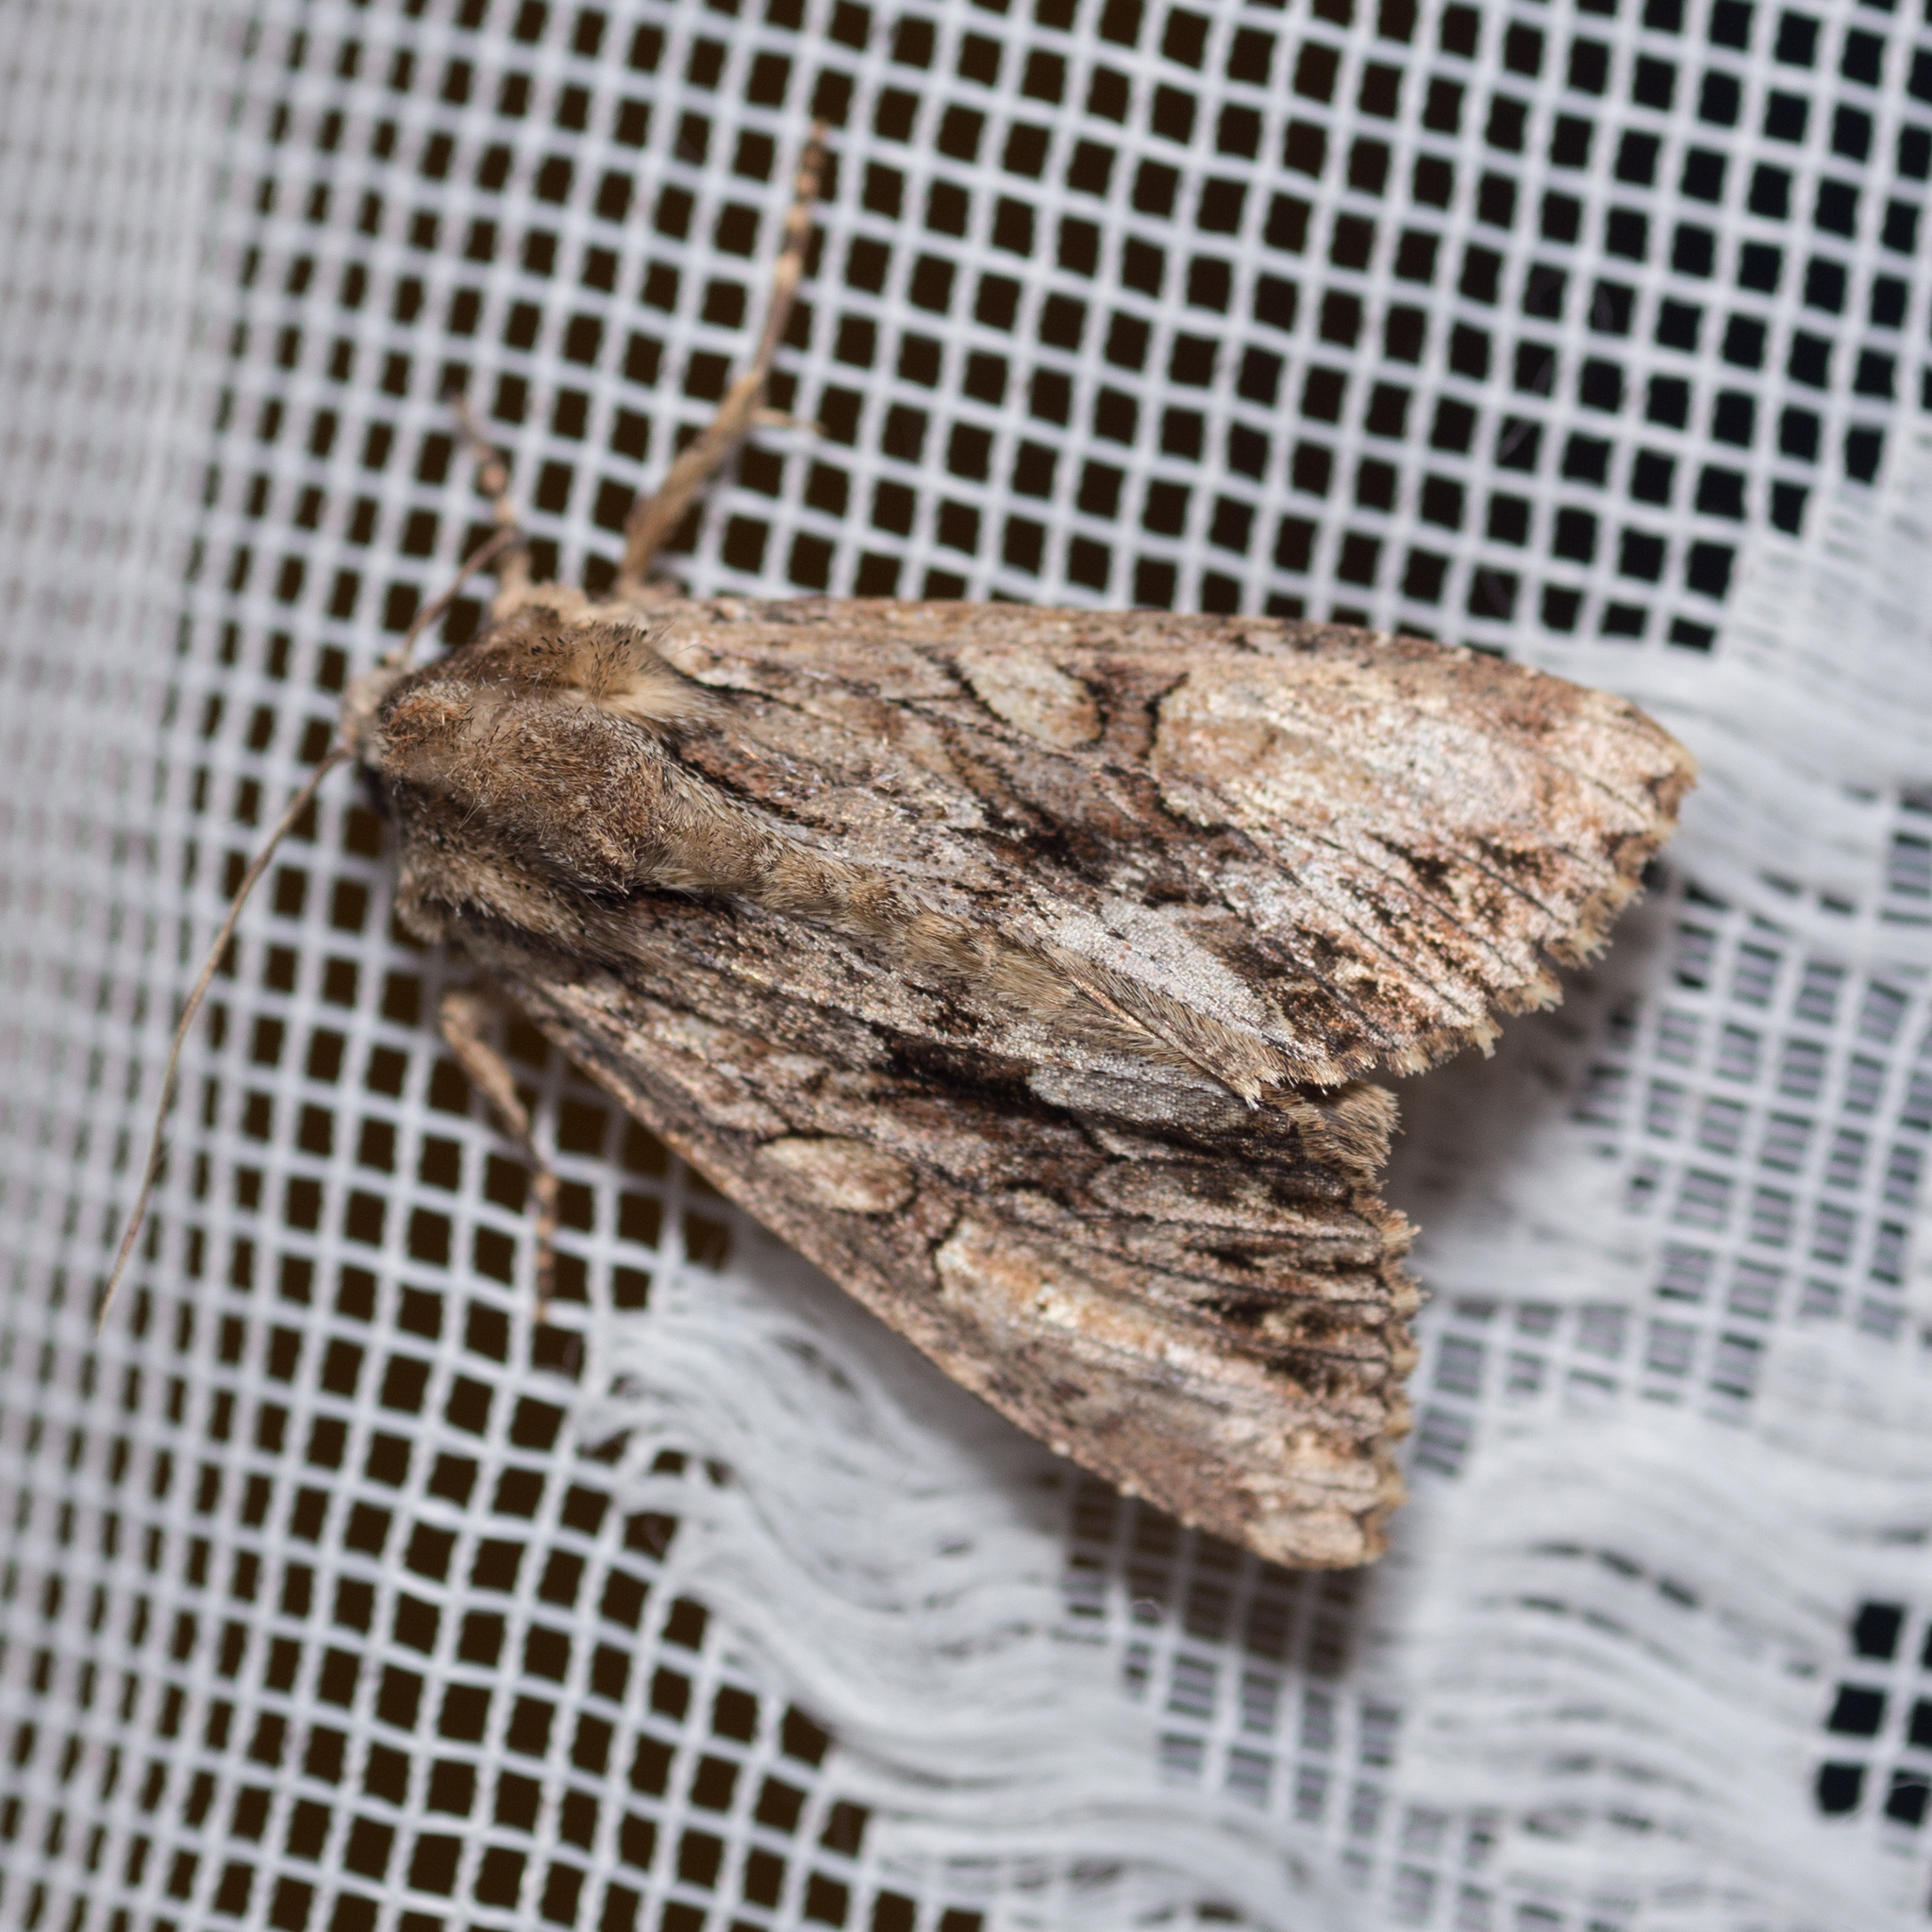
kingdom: Animalia
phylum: Arthropoda
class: Insecta
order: Lepidoptera
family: Noctuidae
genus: Apamea
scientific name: Apamea monoglypha
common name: Dark arches
